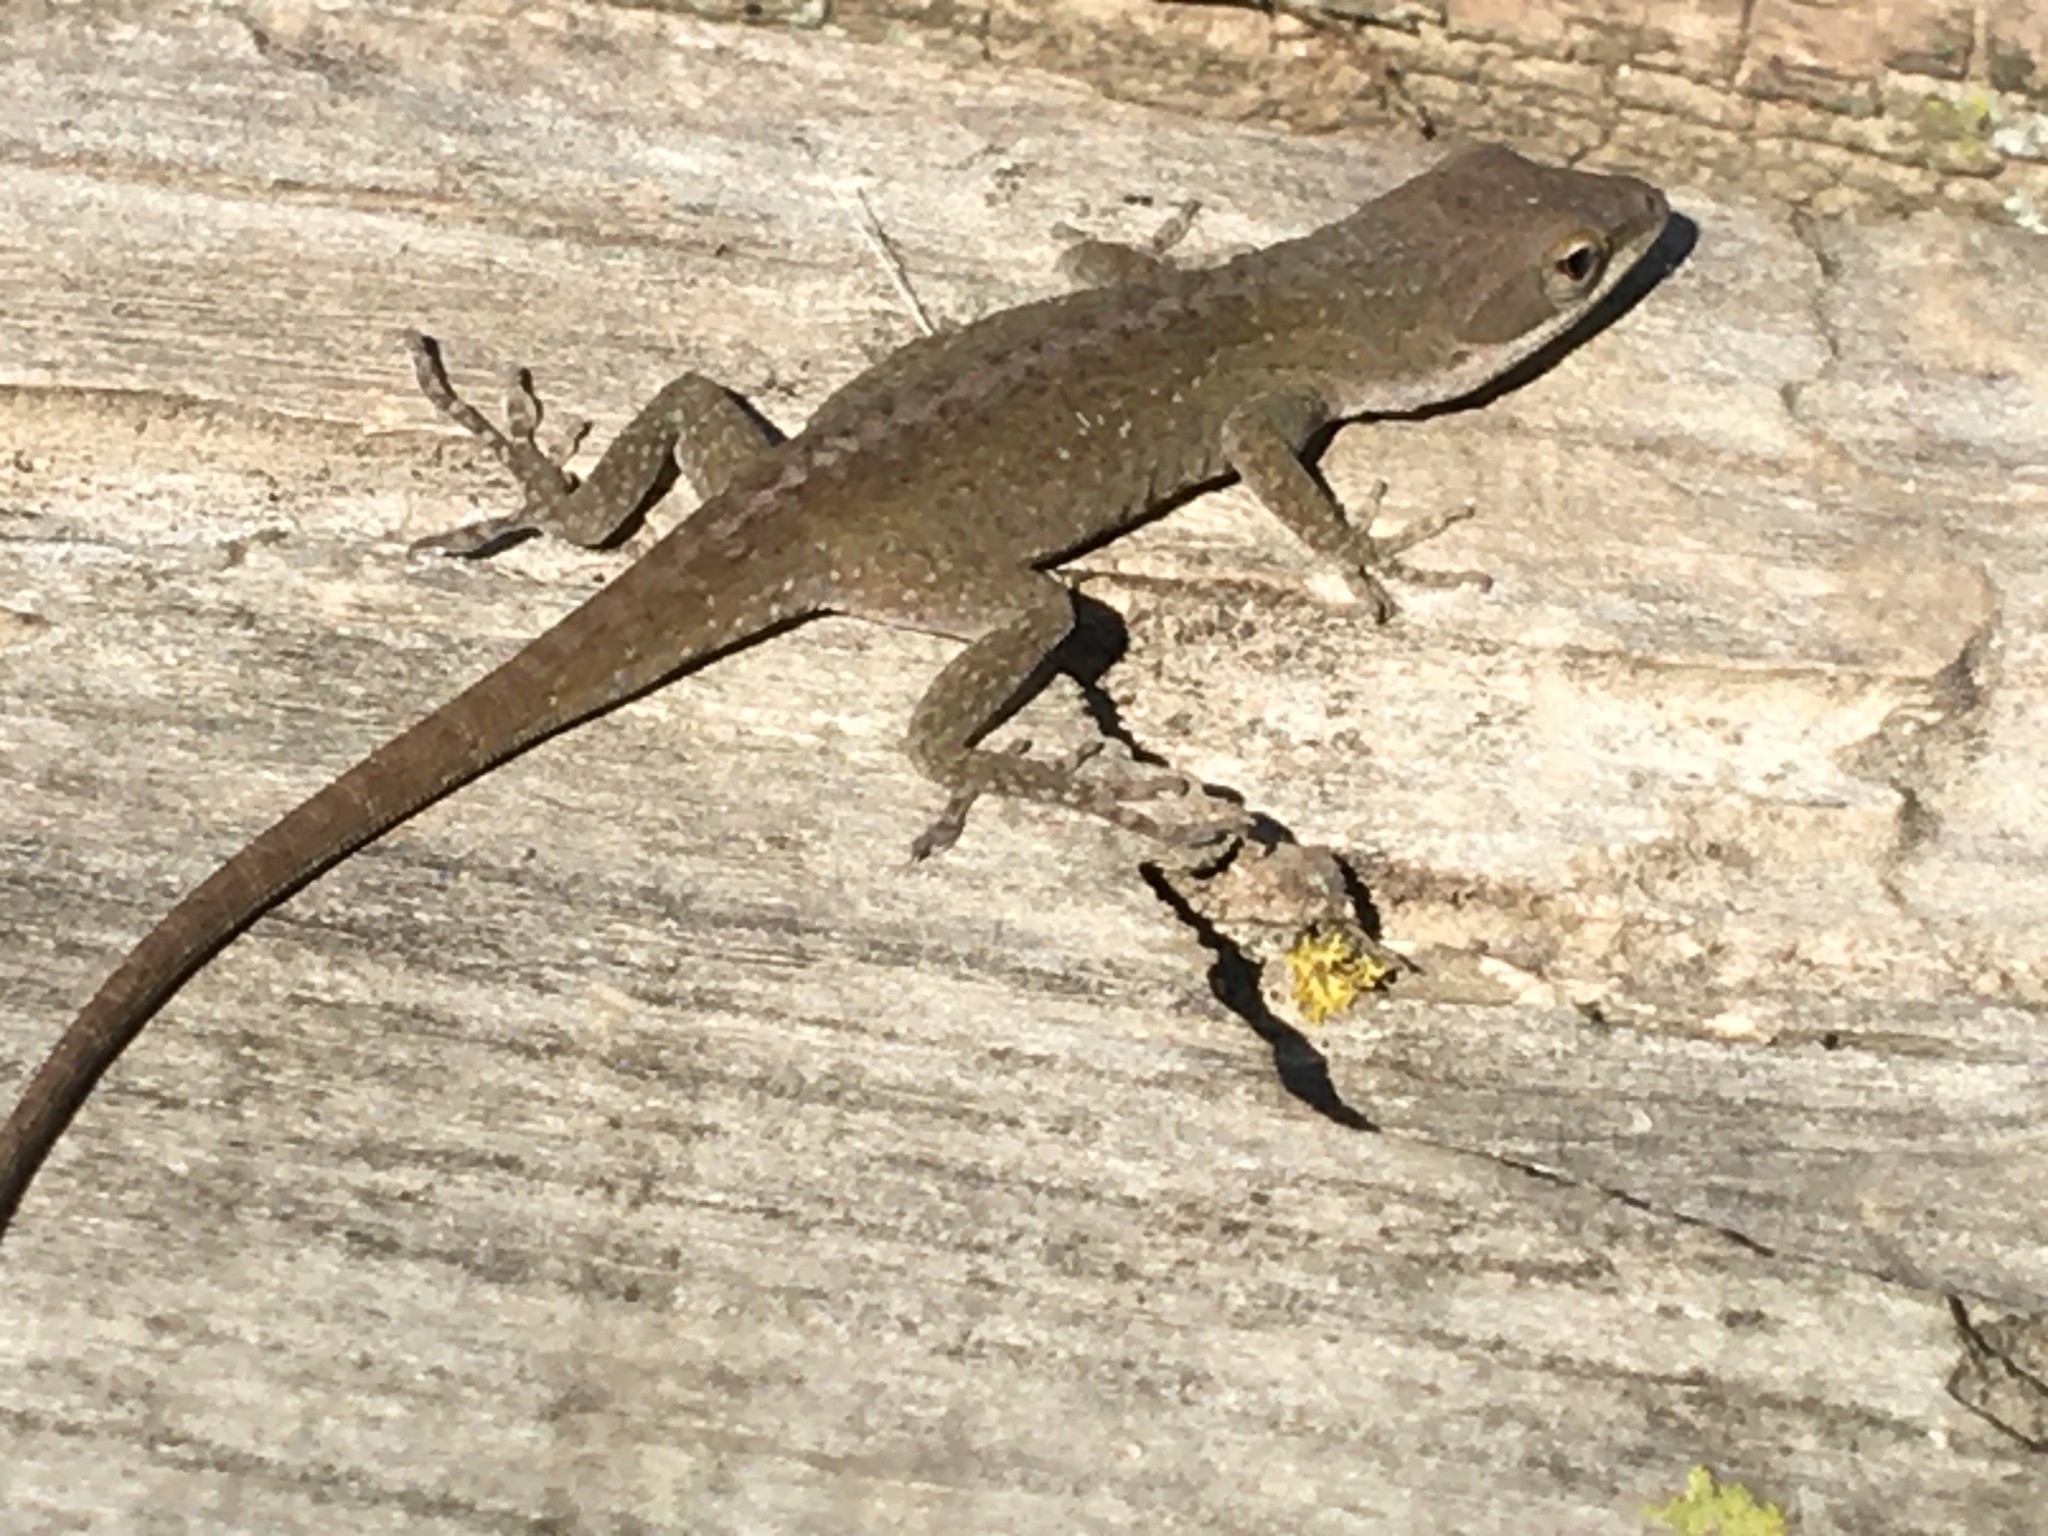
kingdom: Animalia
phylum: Chordata
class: Squamata
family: Dactyloidae
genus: Anolis
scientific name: Anolis carolinensis
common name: Green anole
